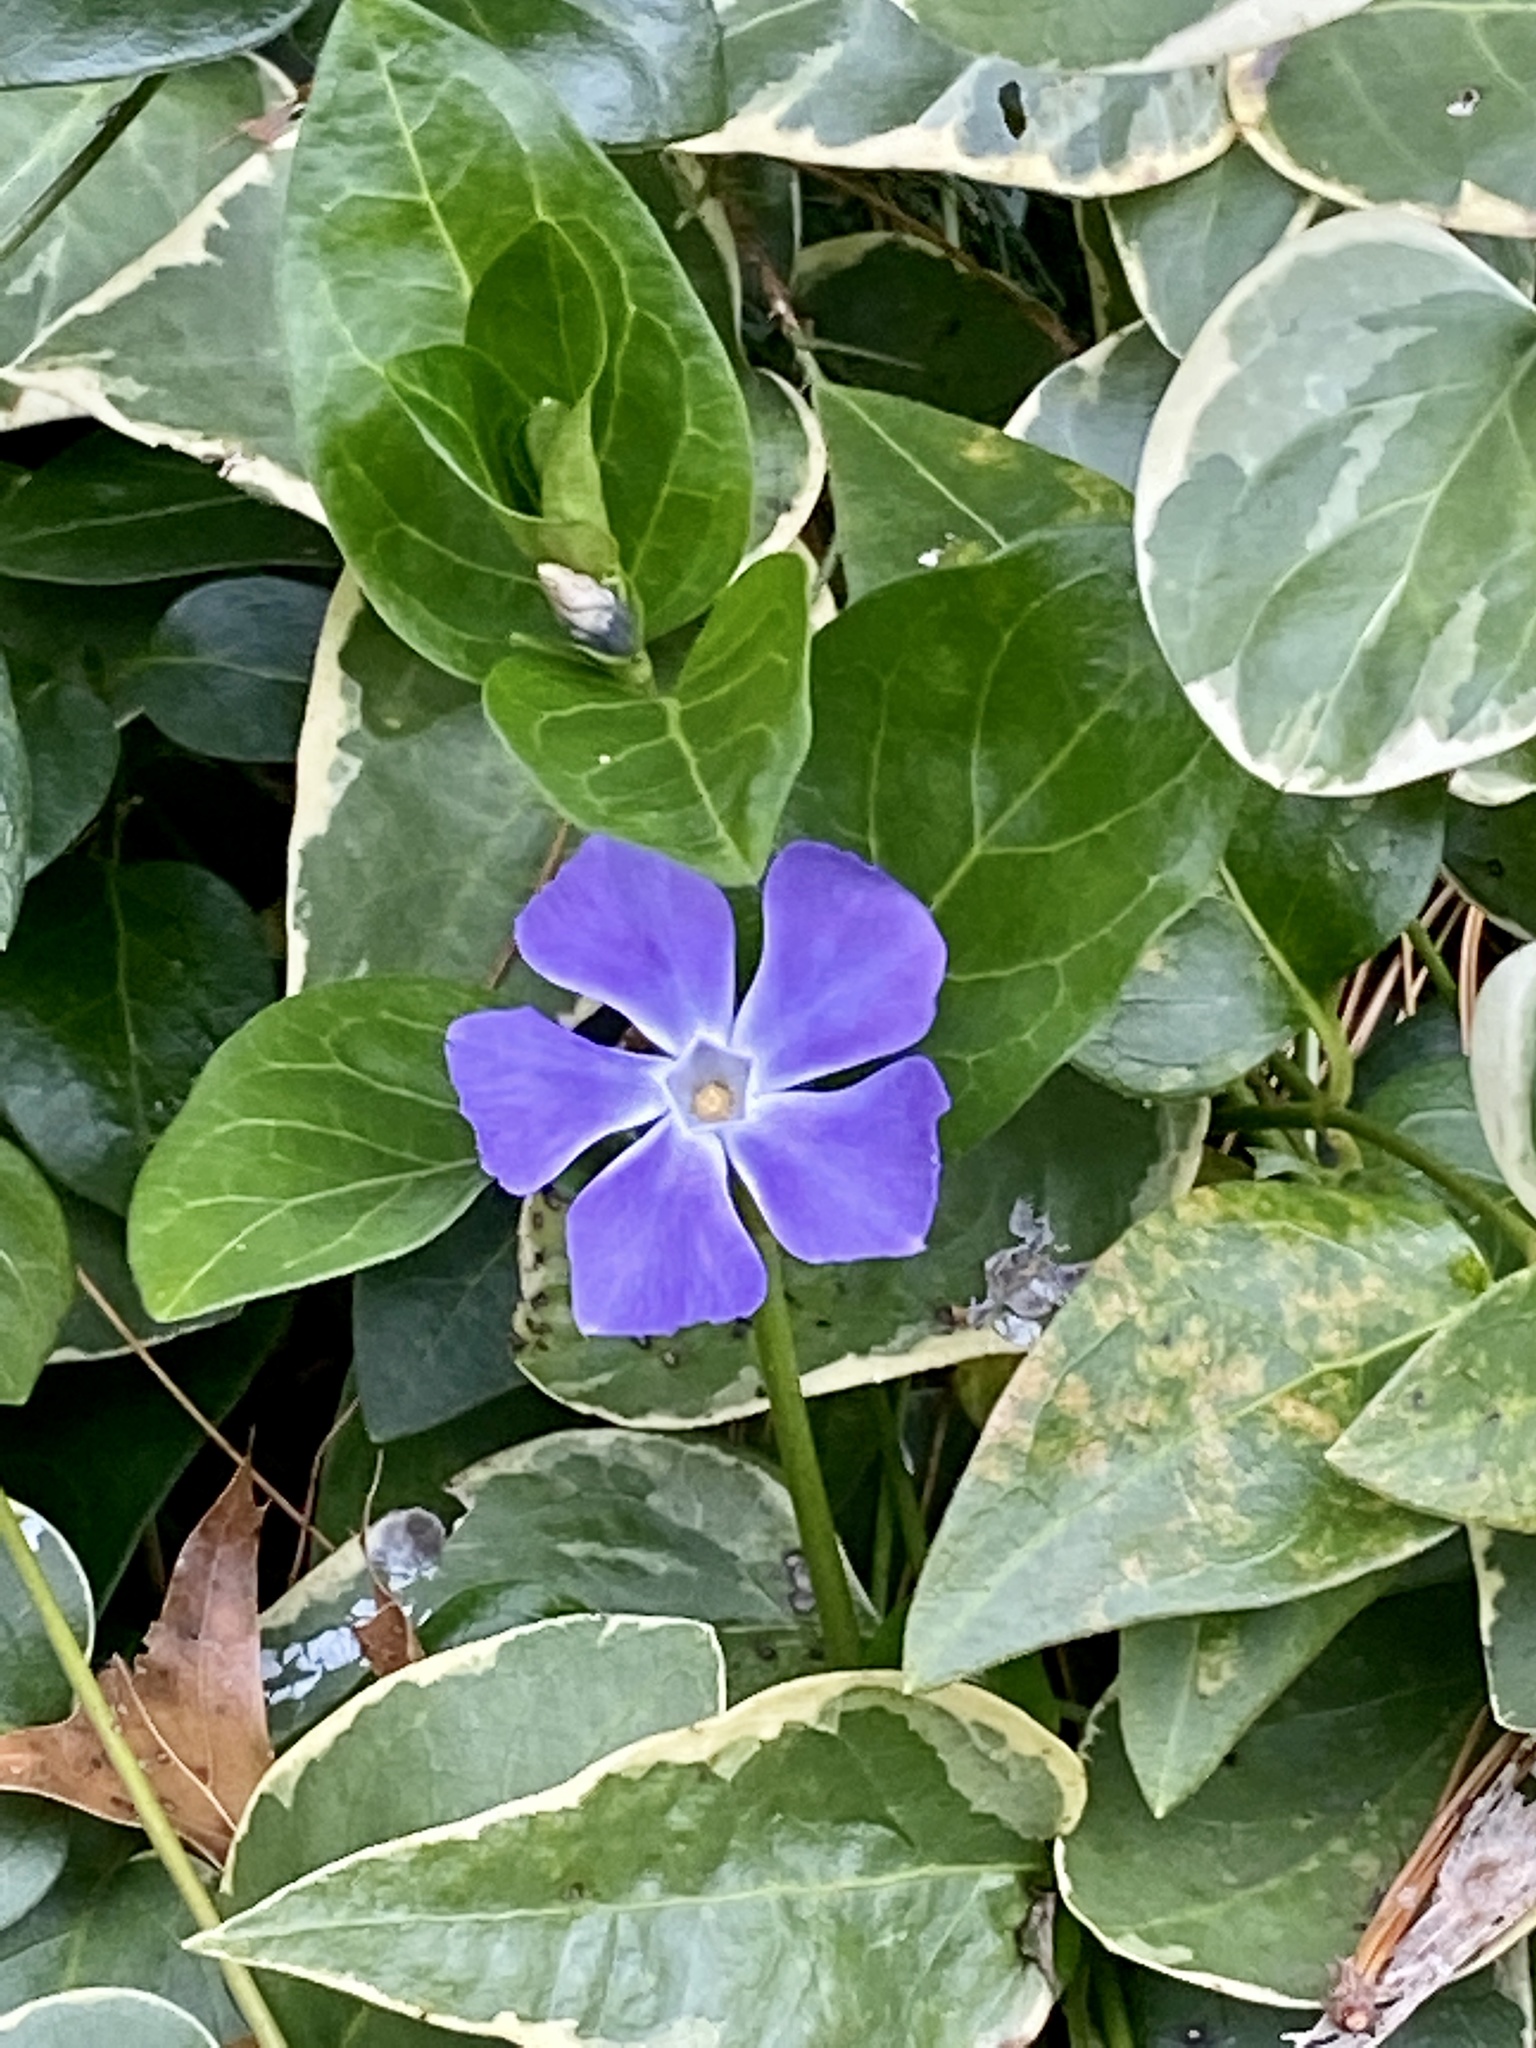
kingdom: Plantae
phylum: Tracheophyta
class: Magnoliopsida
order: Gentianales
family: Apocynaceae
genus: Vinca
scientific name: Vinca major
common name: Greater periwinkle
